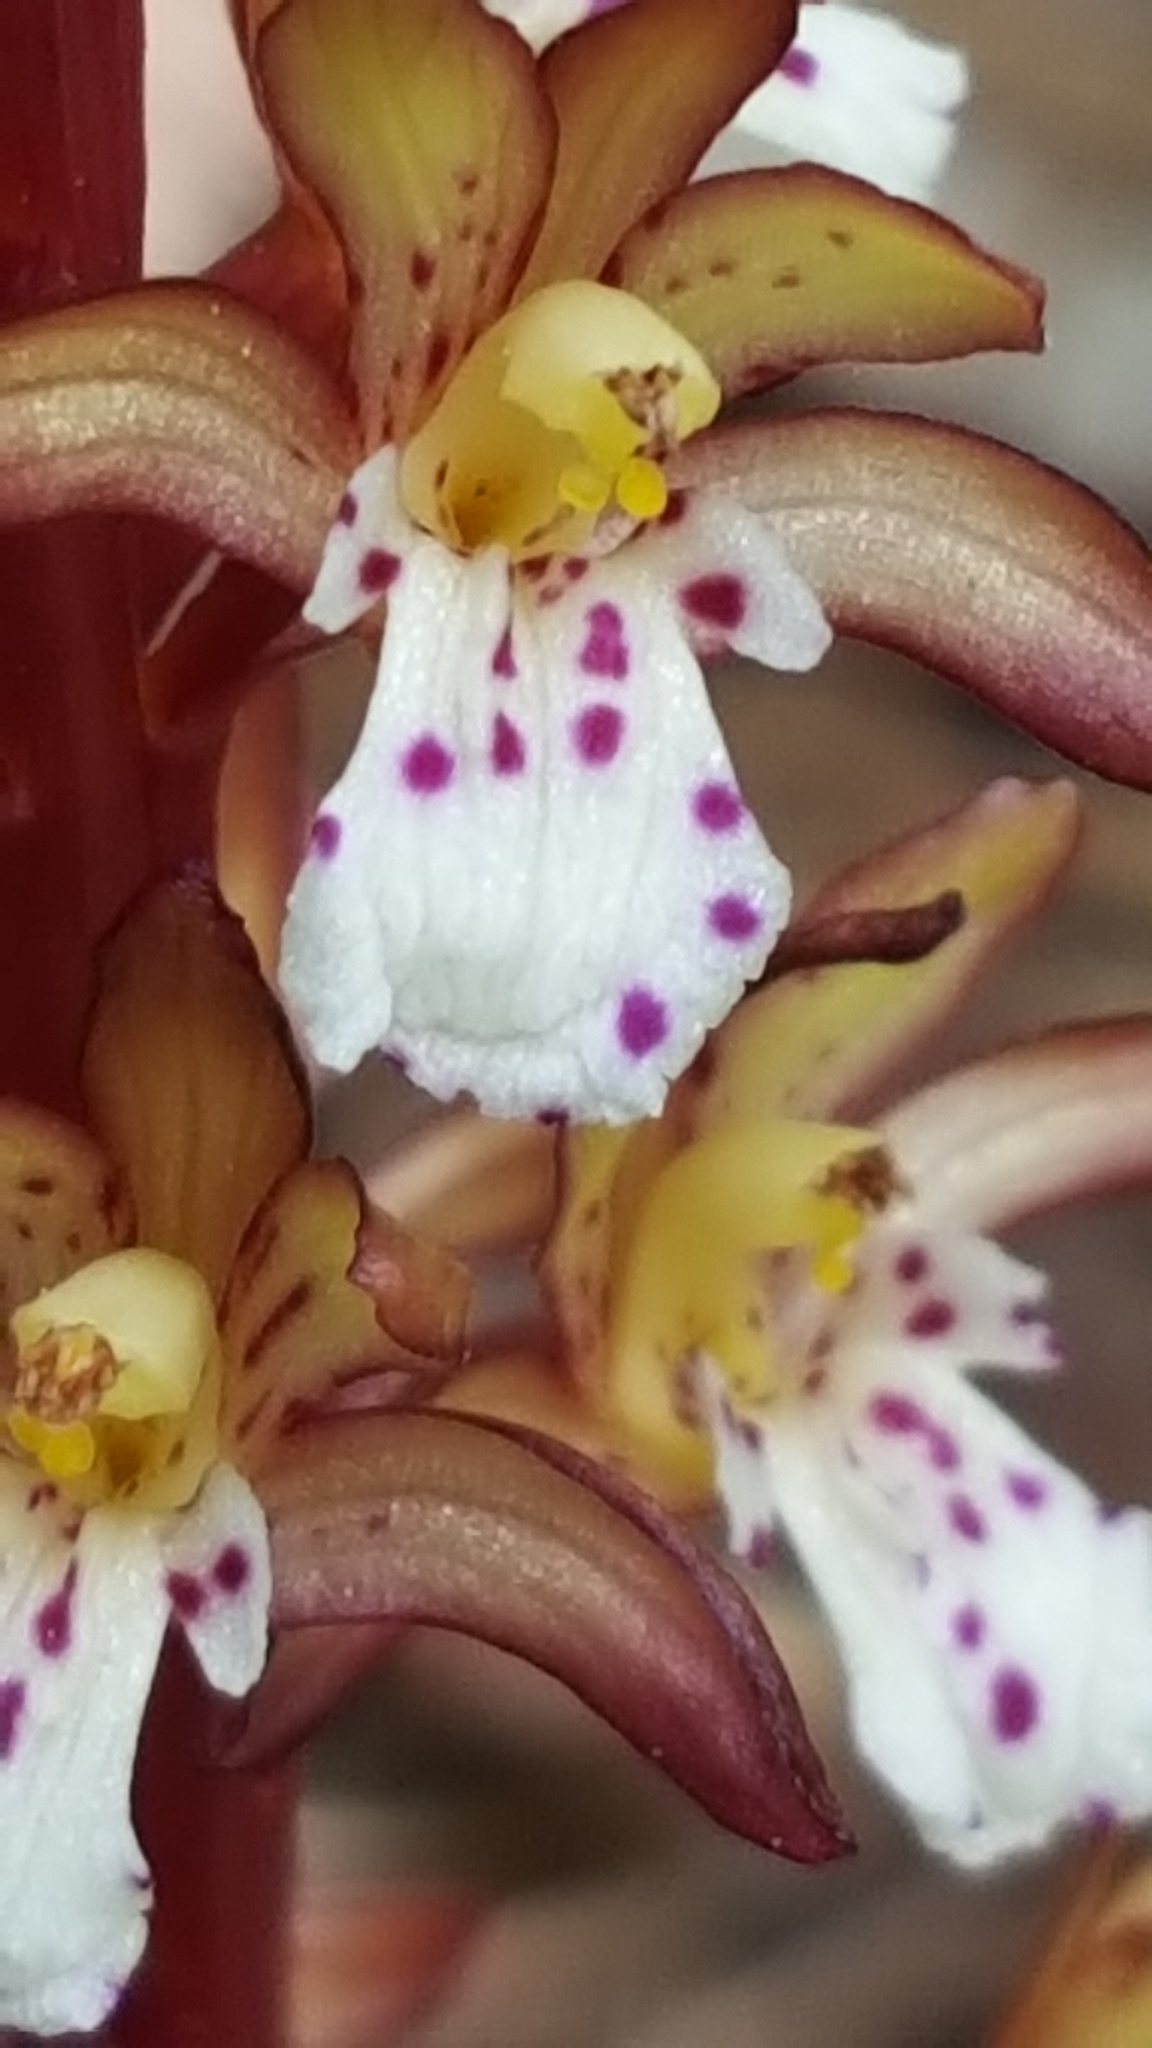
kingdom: Plantae
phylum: Tracheophyta
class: Liliopsida
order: Asparagales
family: Orchidaceae
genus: Corallorhiza
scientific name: Corallorhiza maculata
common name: Spotted coralroot
